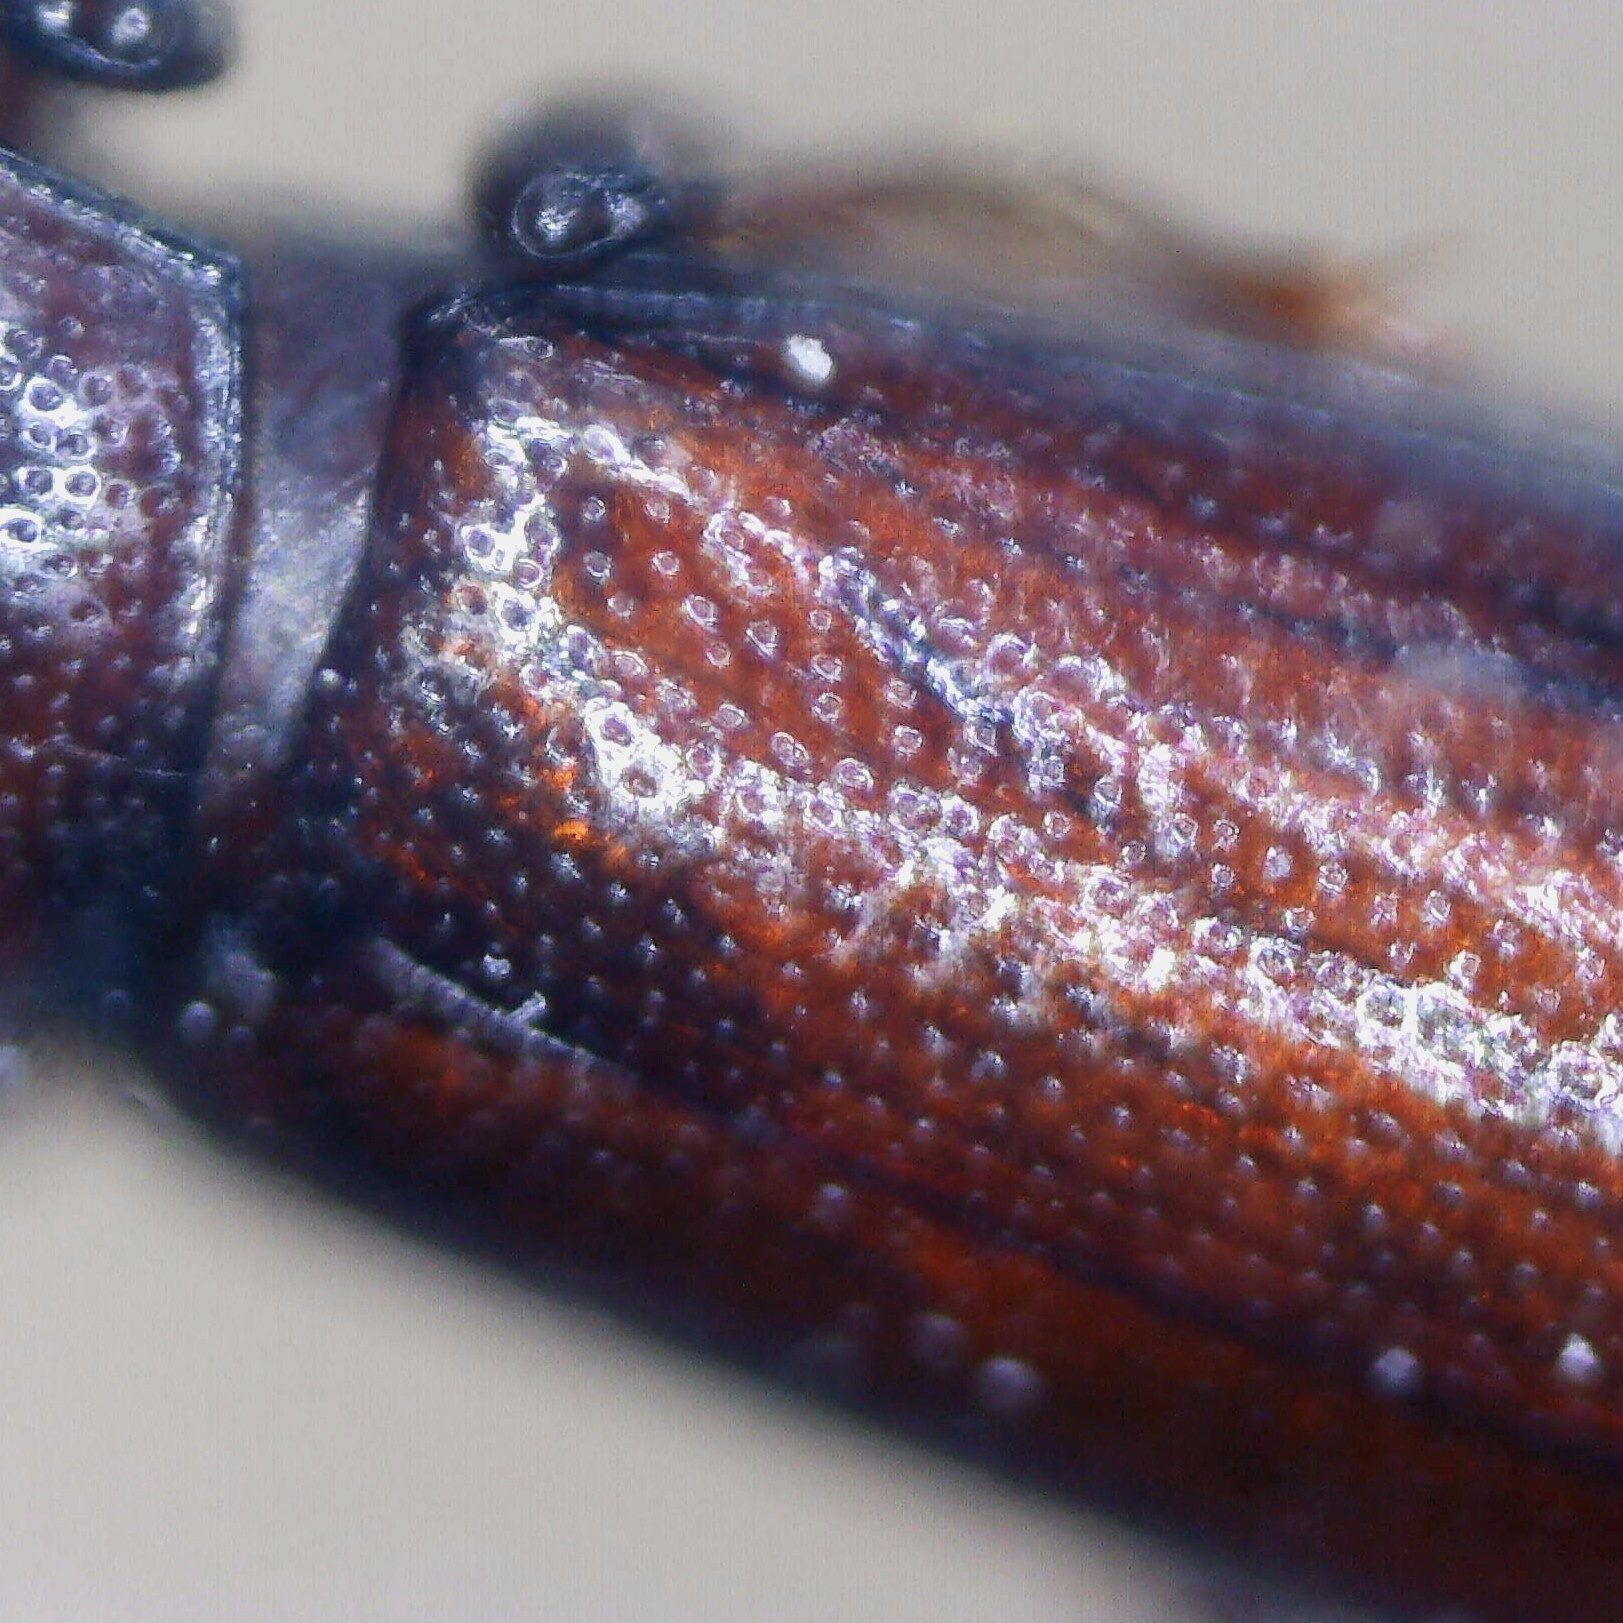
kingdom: Animalia
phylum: Arthropoda
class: Insecta
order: Coleoptera
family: Tenebrionidae
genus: Corticeus
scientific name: Corticeus unicolor
